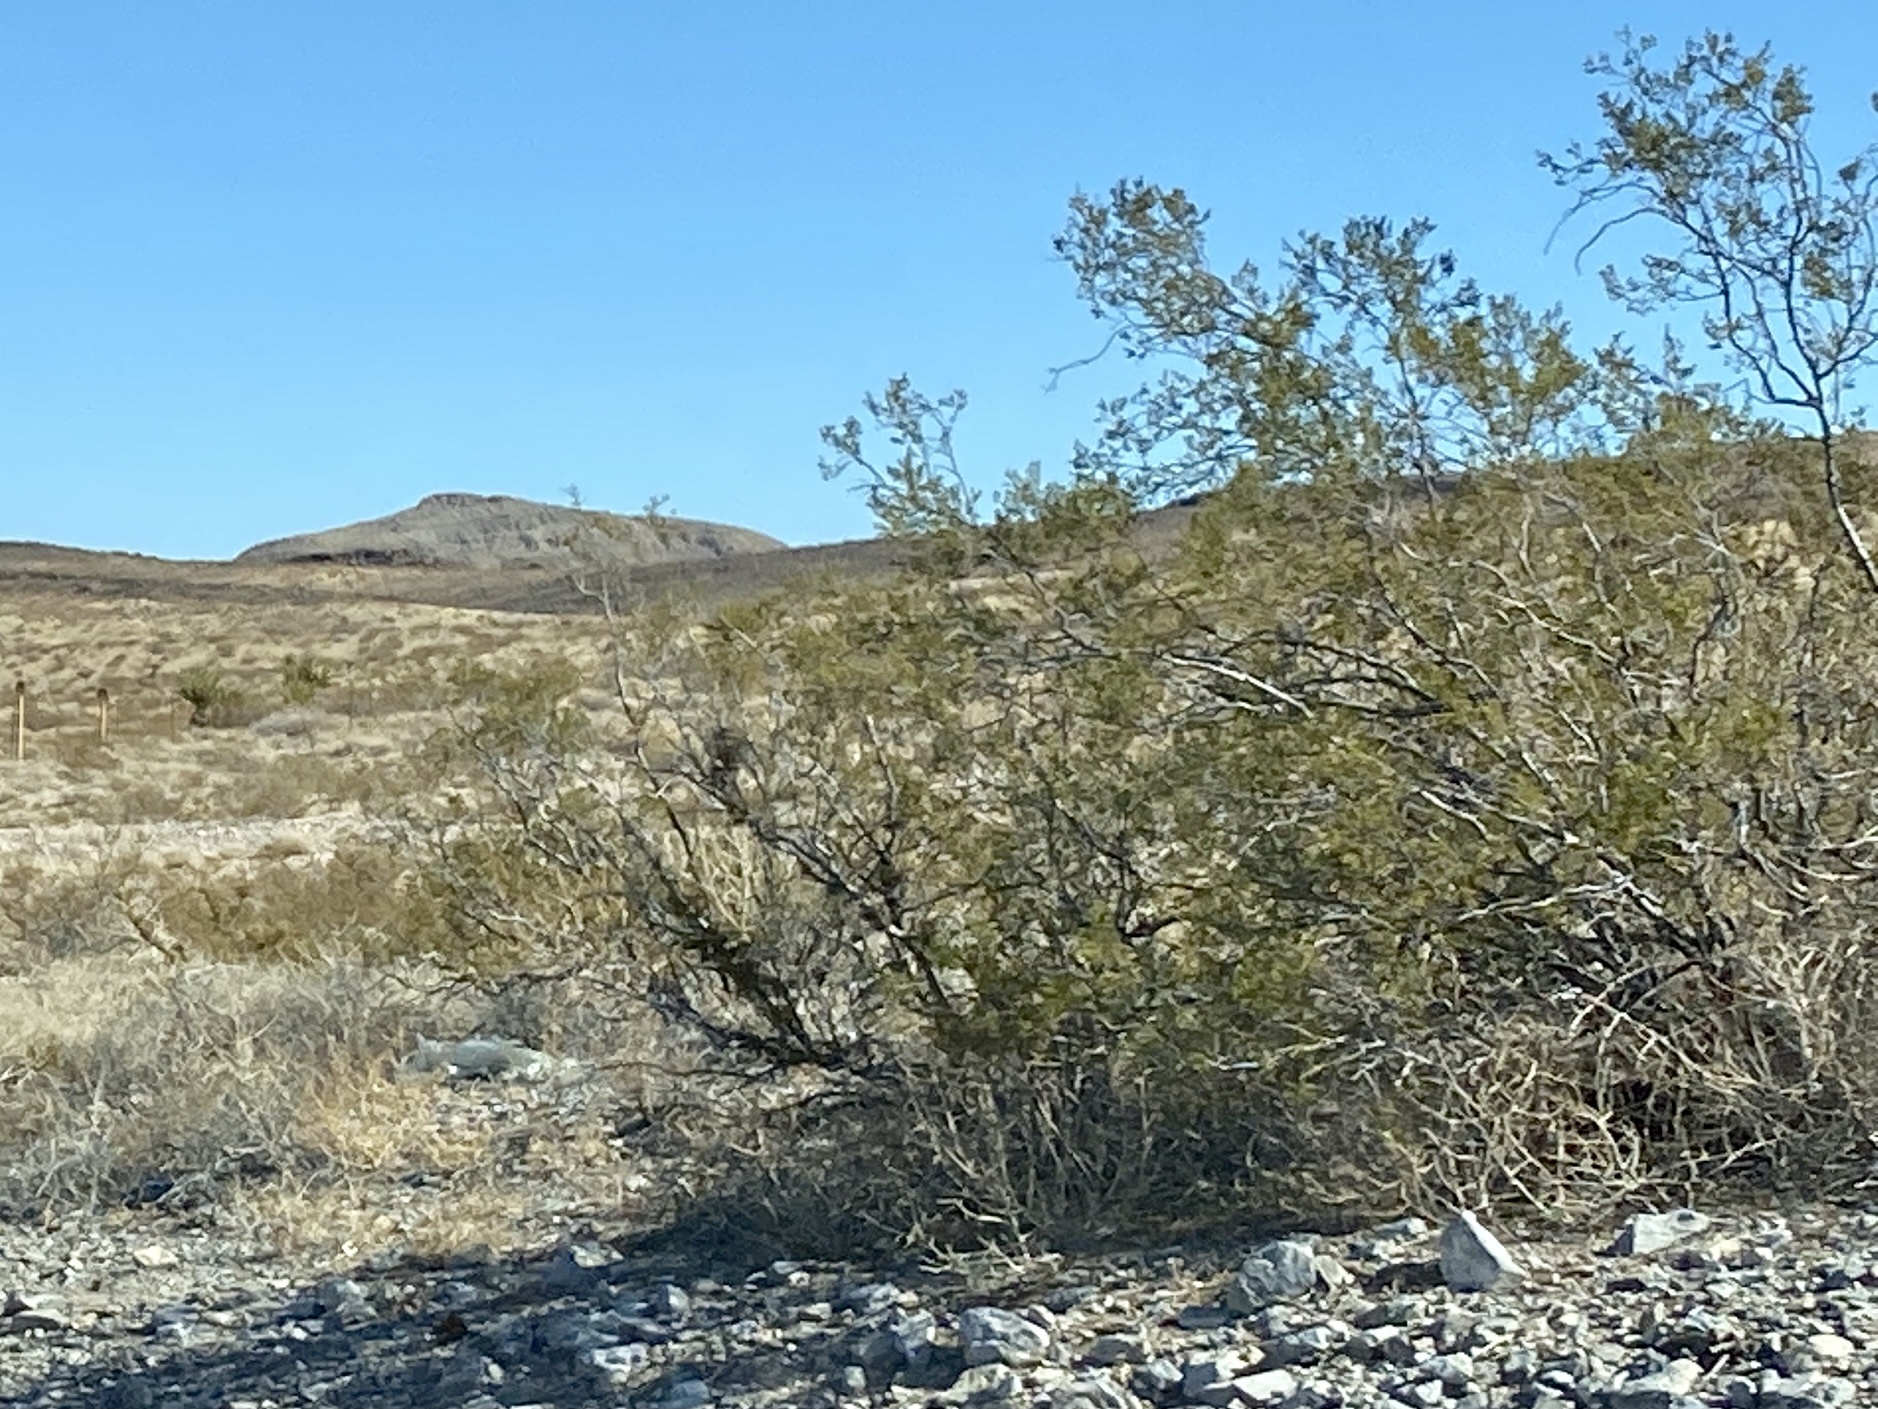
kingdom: Plantae
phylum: Tracheophyta
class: Magnoliopsida
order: Zygophyllales
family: Zygophyllaceae
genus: Larrea
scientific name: Larrea tridentata
